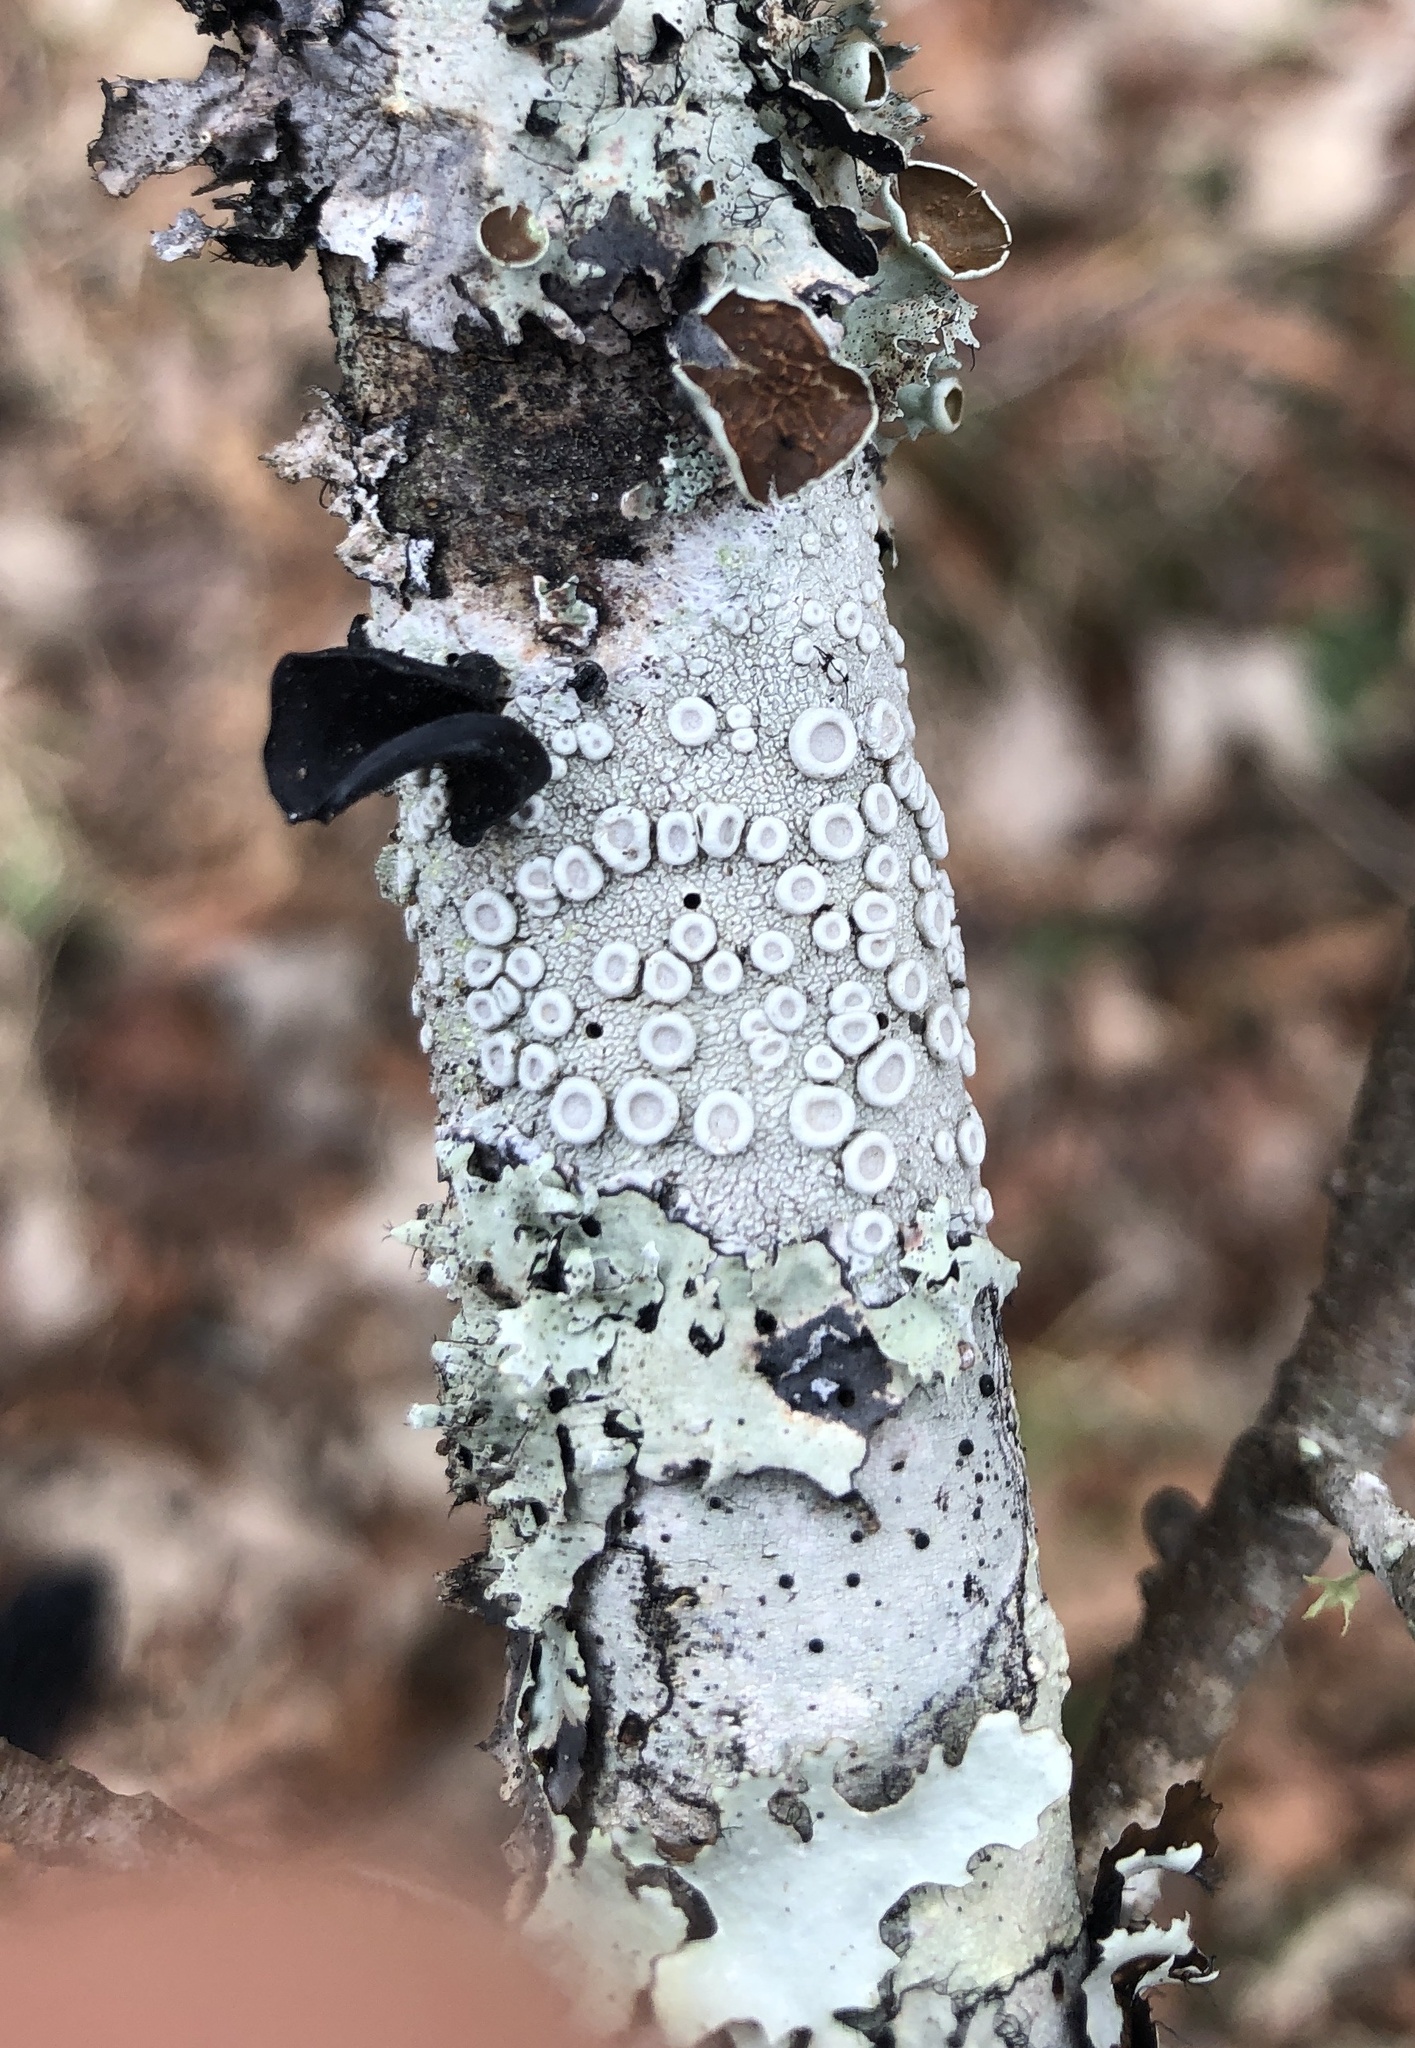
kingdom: Fungi
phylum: Ascomycota
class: Lecanoromycetes
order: Pertusariales
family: Ochrolechiaceae
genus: Ochrolechia
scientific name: Ochrolechia africana
